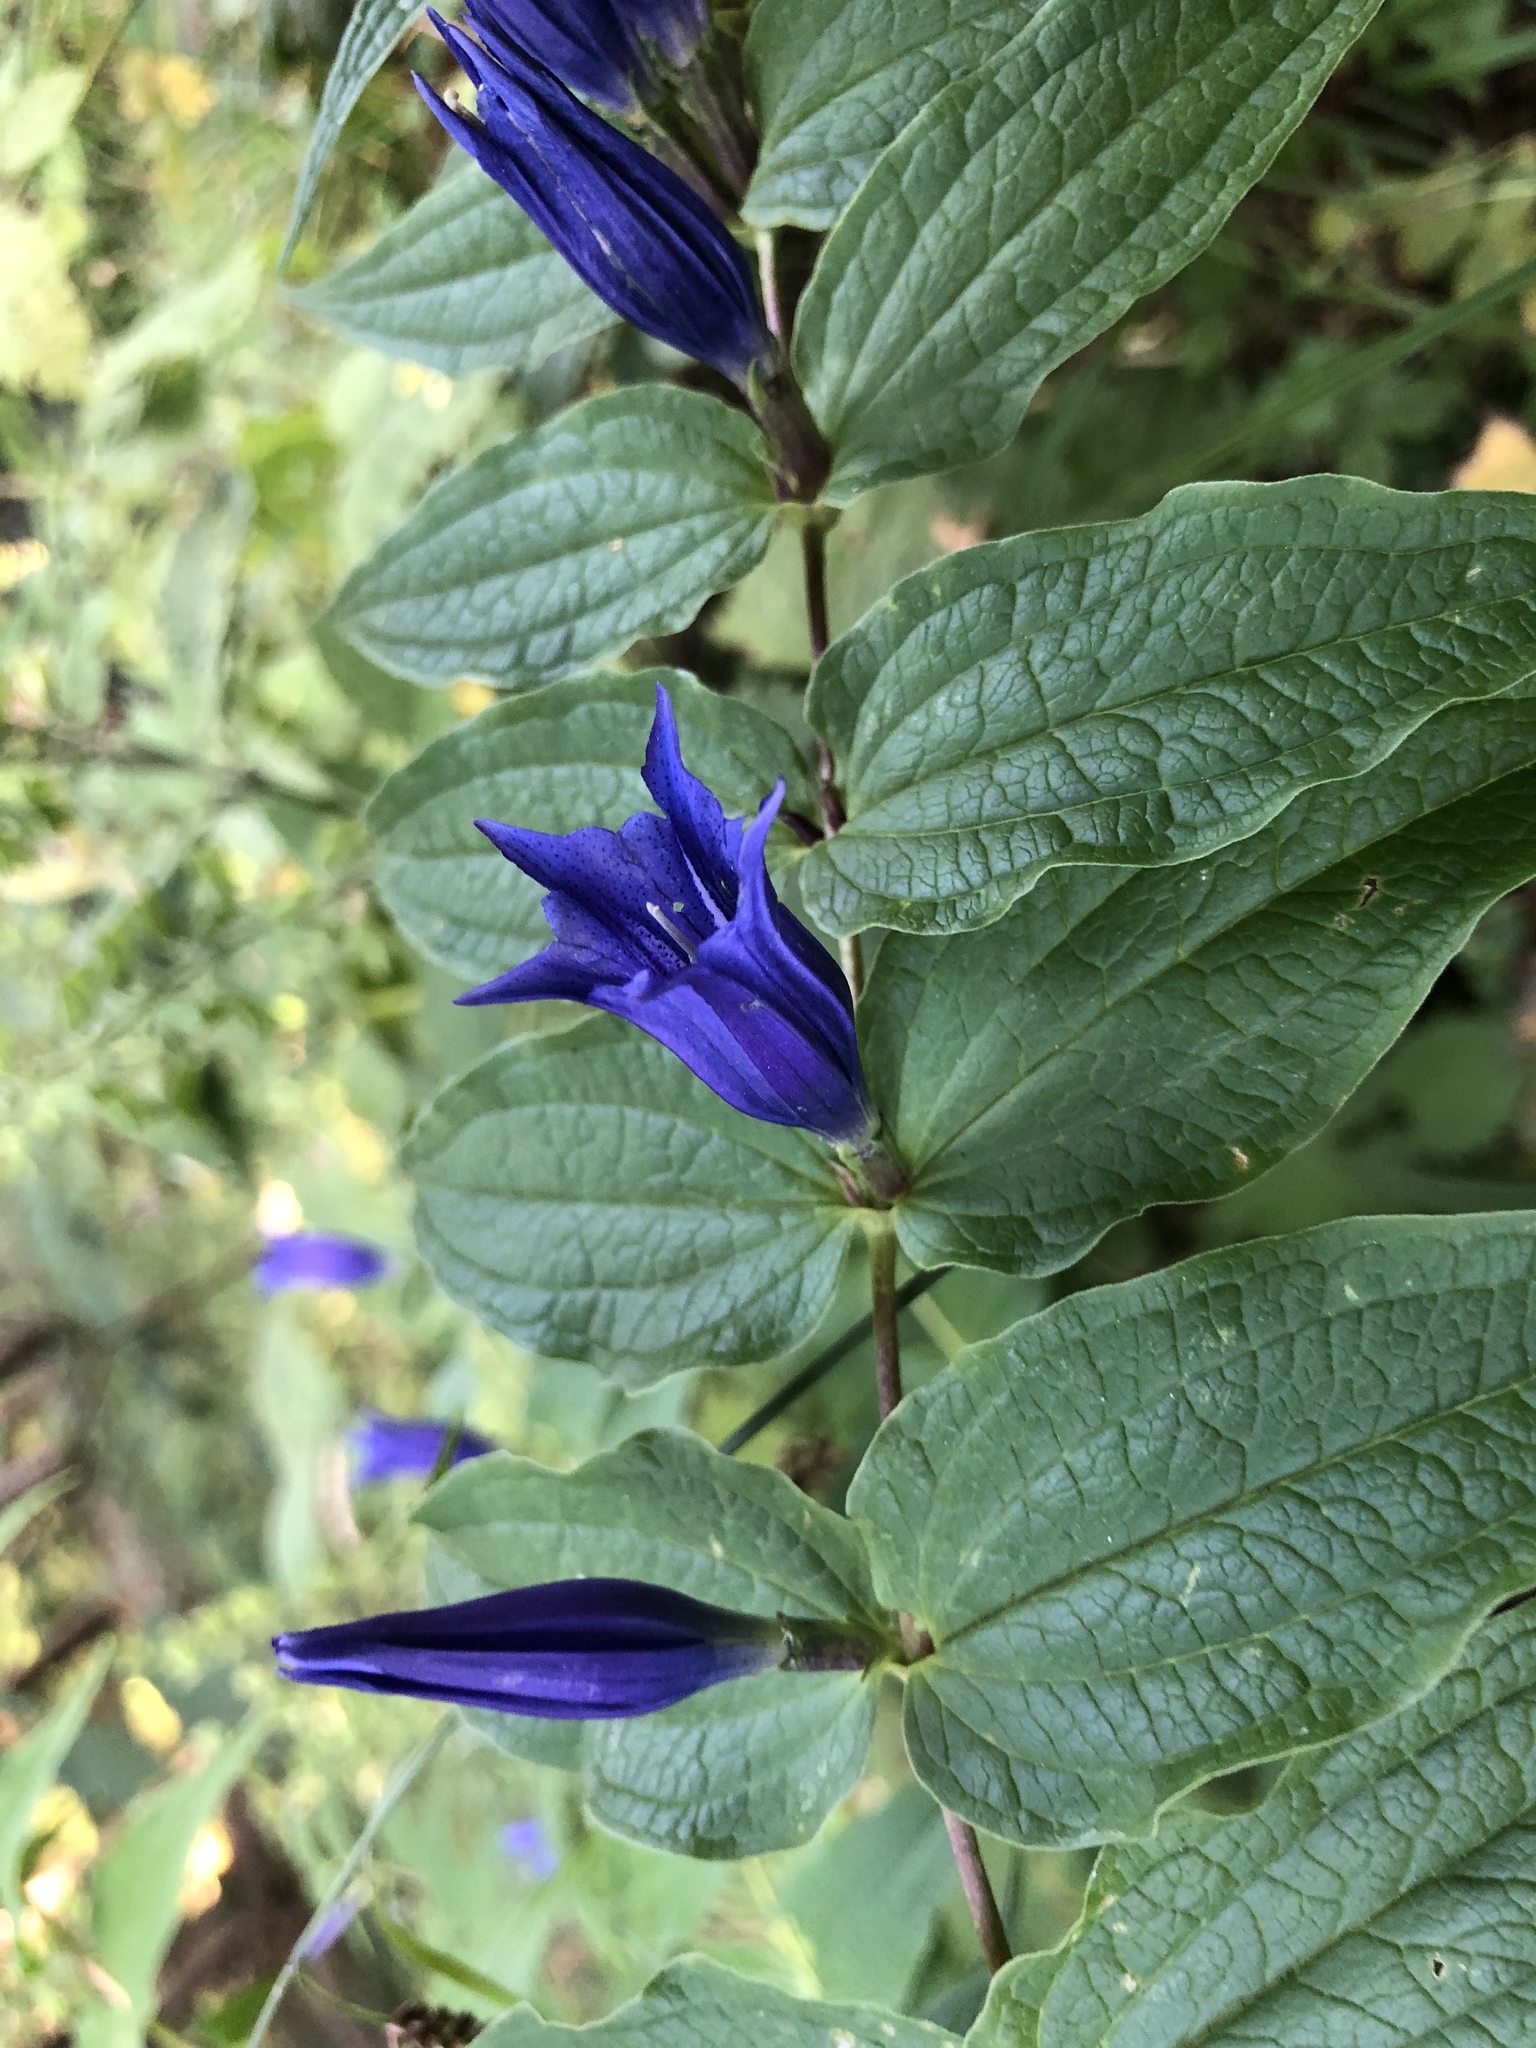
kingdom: Plantae
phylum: Tracheophyta
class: Magnoliopsida
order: Gentianales
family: Gentianaceae
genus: Gentiana
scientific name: Gentiana asclepiadea
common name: Willow gentian
